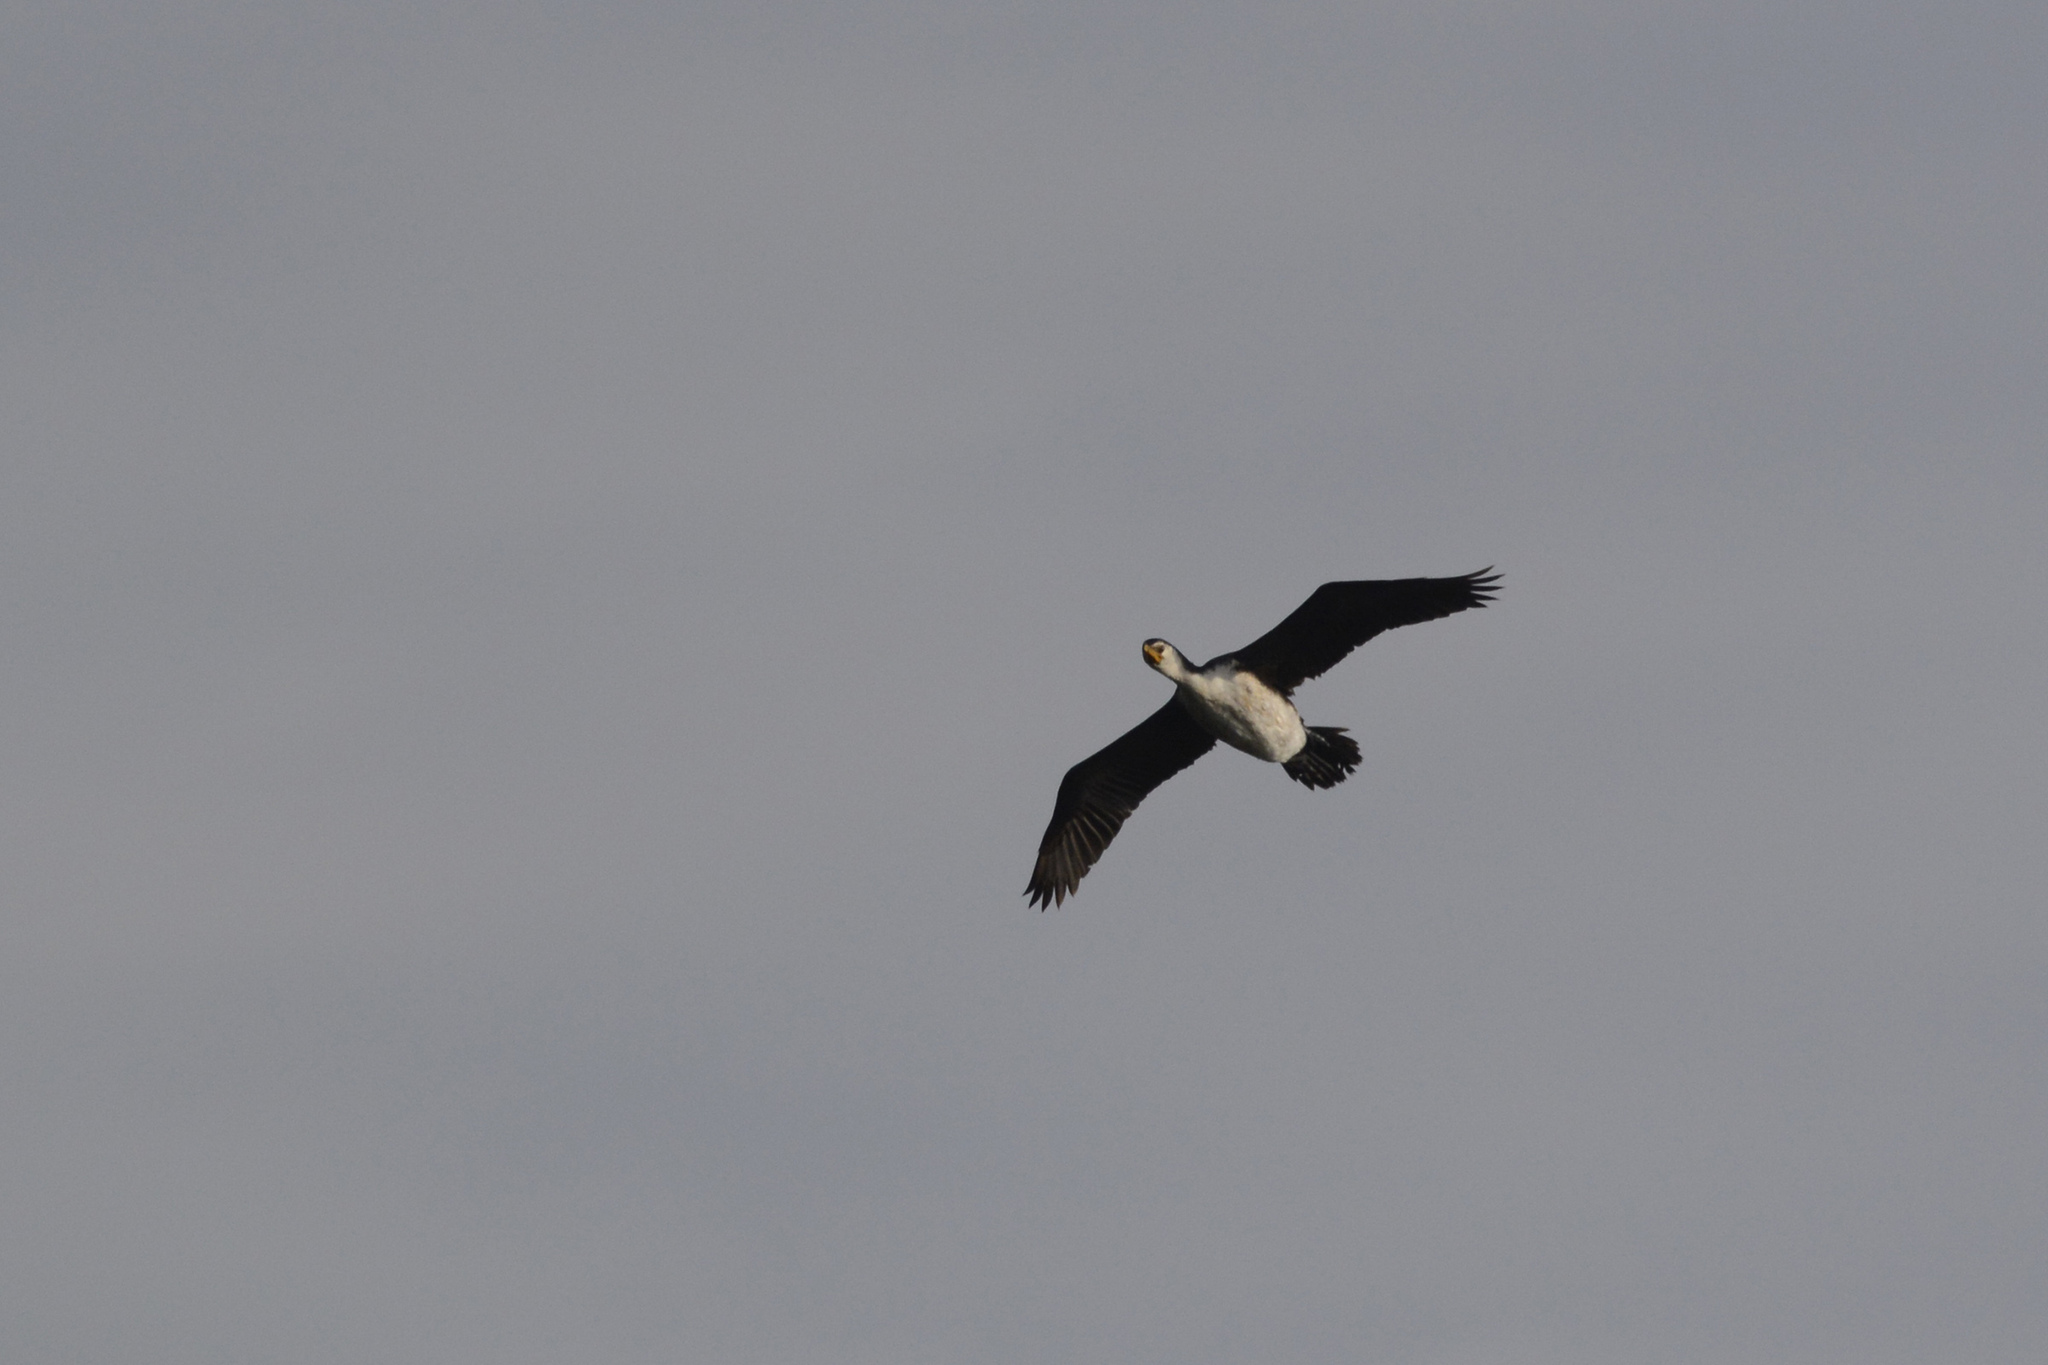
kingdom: Animalia
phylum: Chordata
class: Aves
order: Suliformes
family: Phalacrocoracidae
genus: Microcarbo
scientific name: Microcarbo melanoleucos
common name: Little pied cormorant
